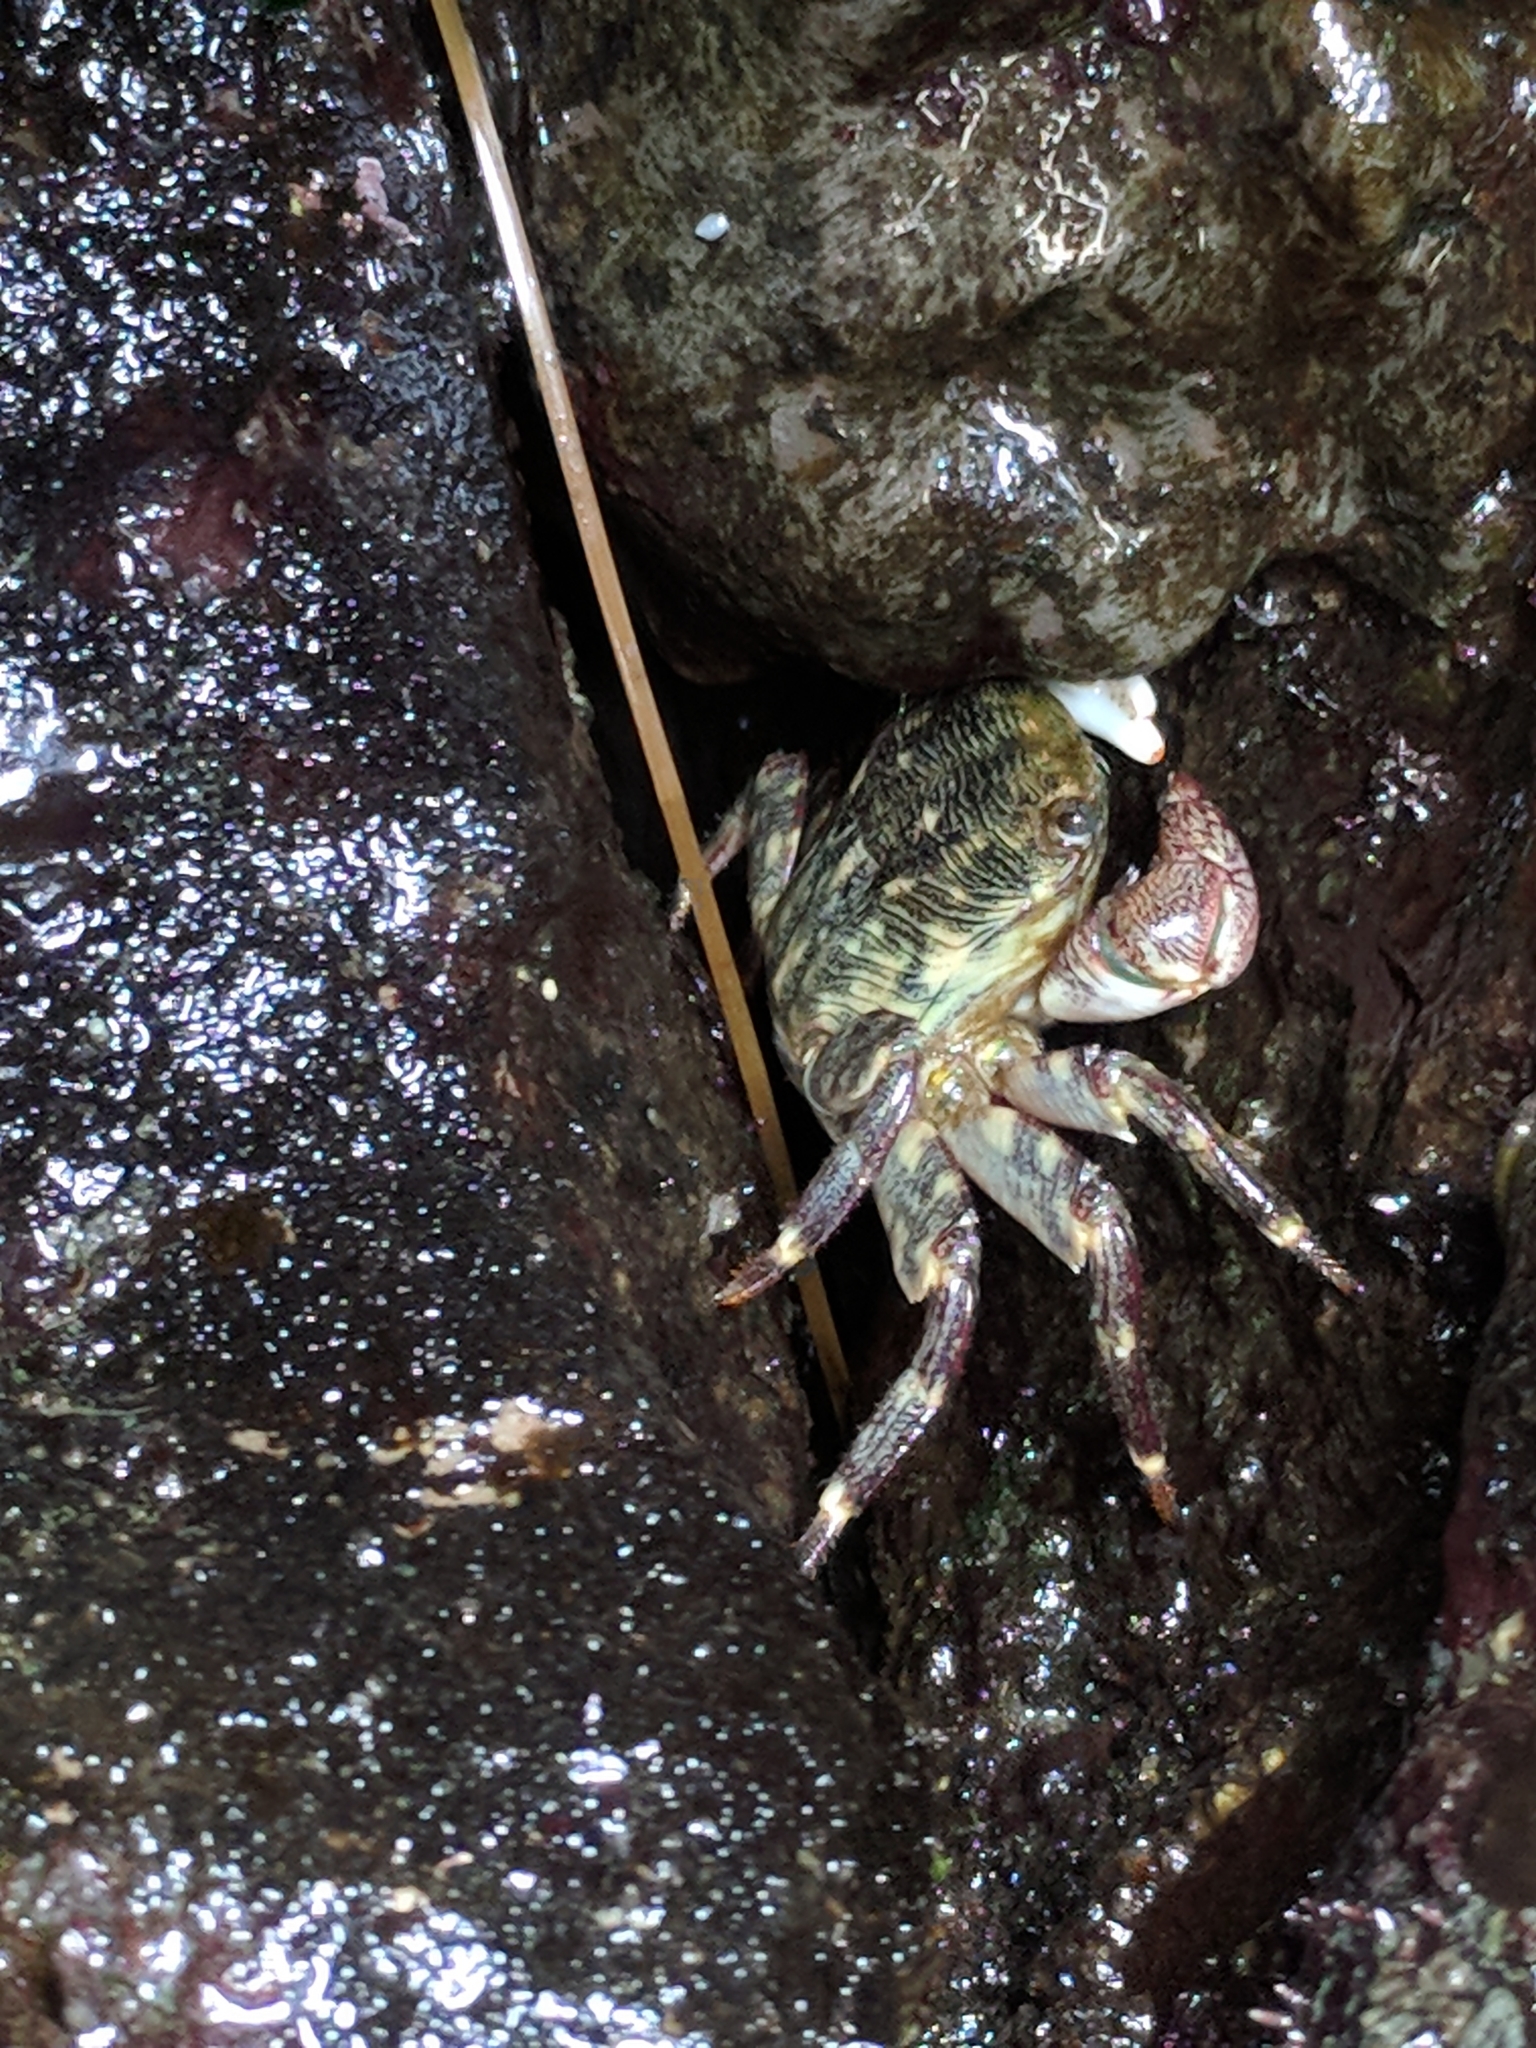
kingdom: Animalia
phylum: Arthropoda
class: Malacostraca
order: Decapoda
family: Grapsidae
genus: Pachygrapsus
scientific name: Pachygrapsus crassipes
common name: Striped shore crab
